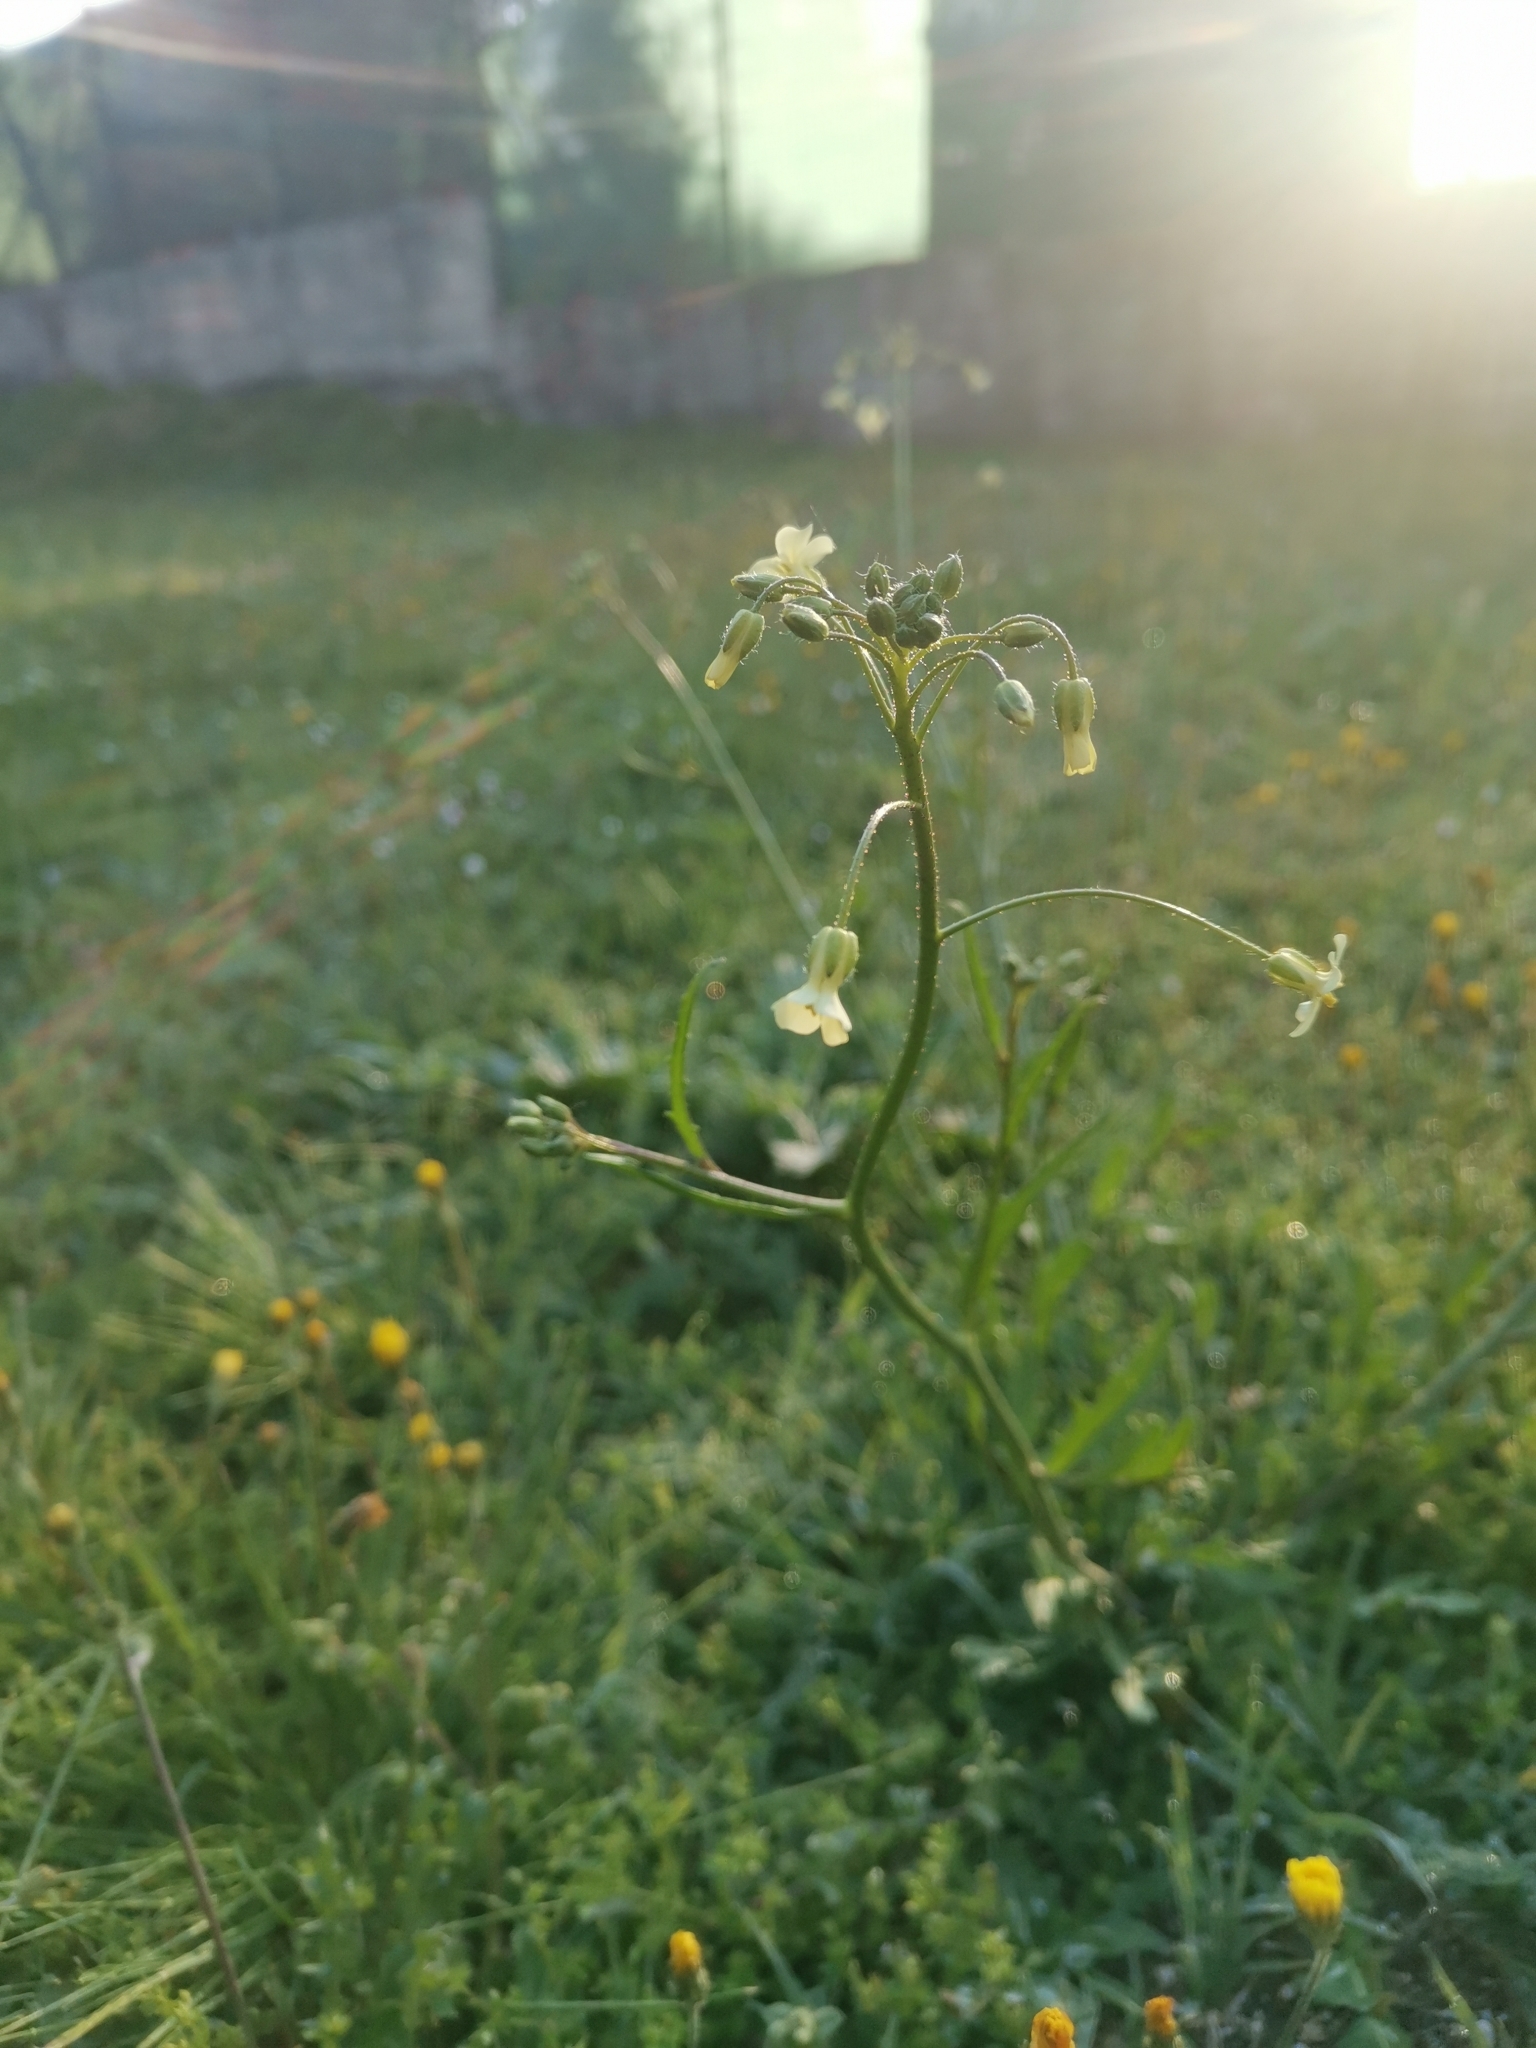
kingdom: Plantae
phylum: Tracheophyta
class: Magnoliopsida
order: Brassicales
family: Brassicaceae
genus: Bunias
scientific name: Bunias erucago
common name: Southern warty-cabbage
